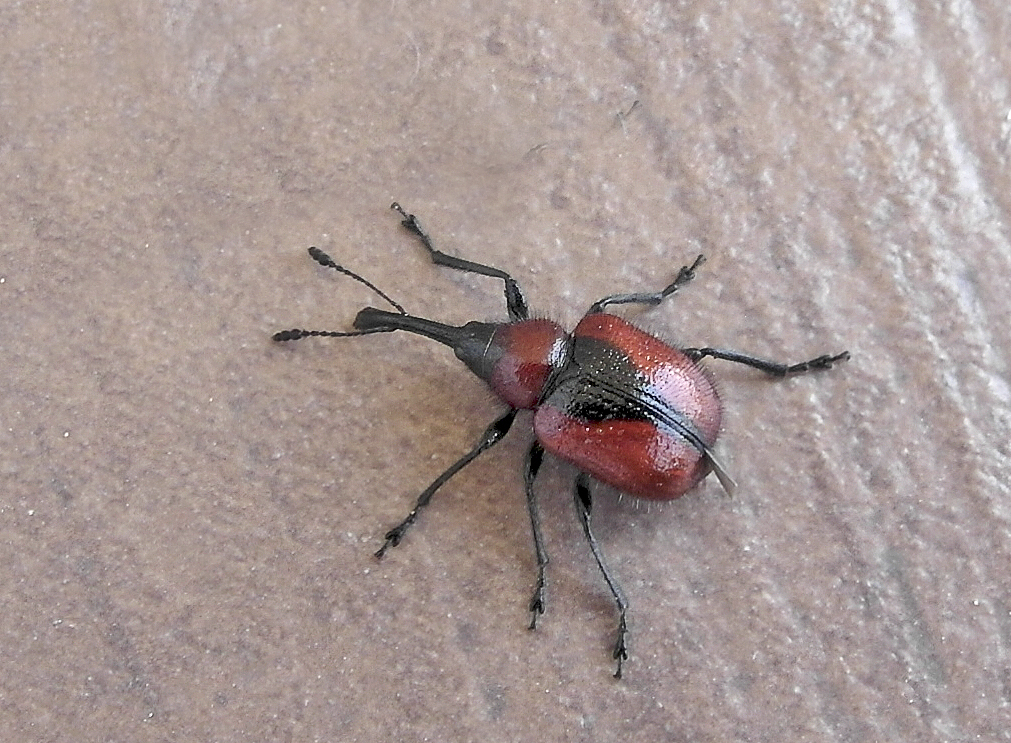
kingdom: Animalia
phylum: Arthropoda
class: Insecta
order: Coleoptera
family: Attelabidae
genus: Mecorhis
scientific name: Mecorhis ungarica
